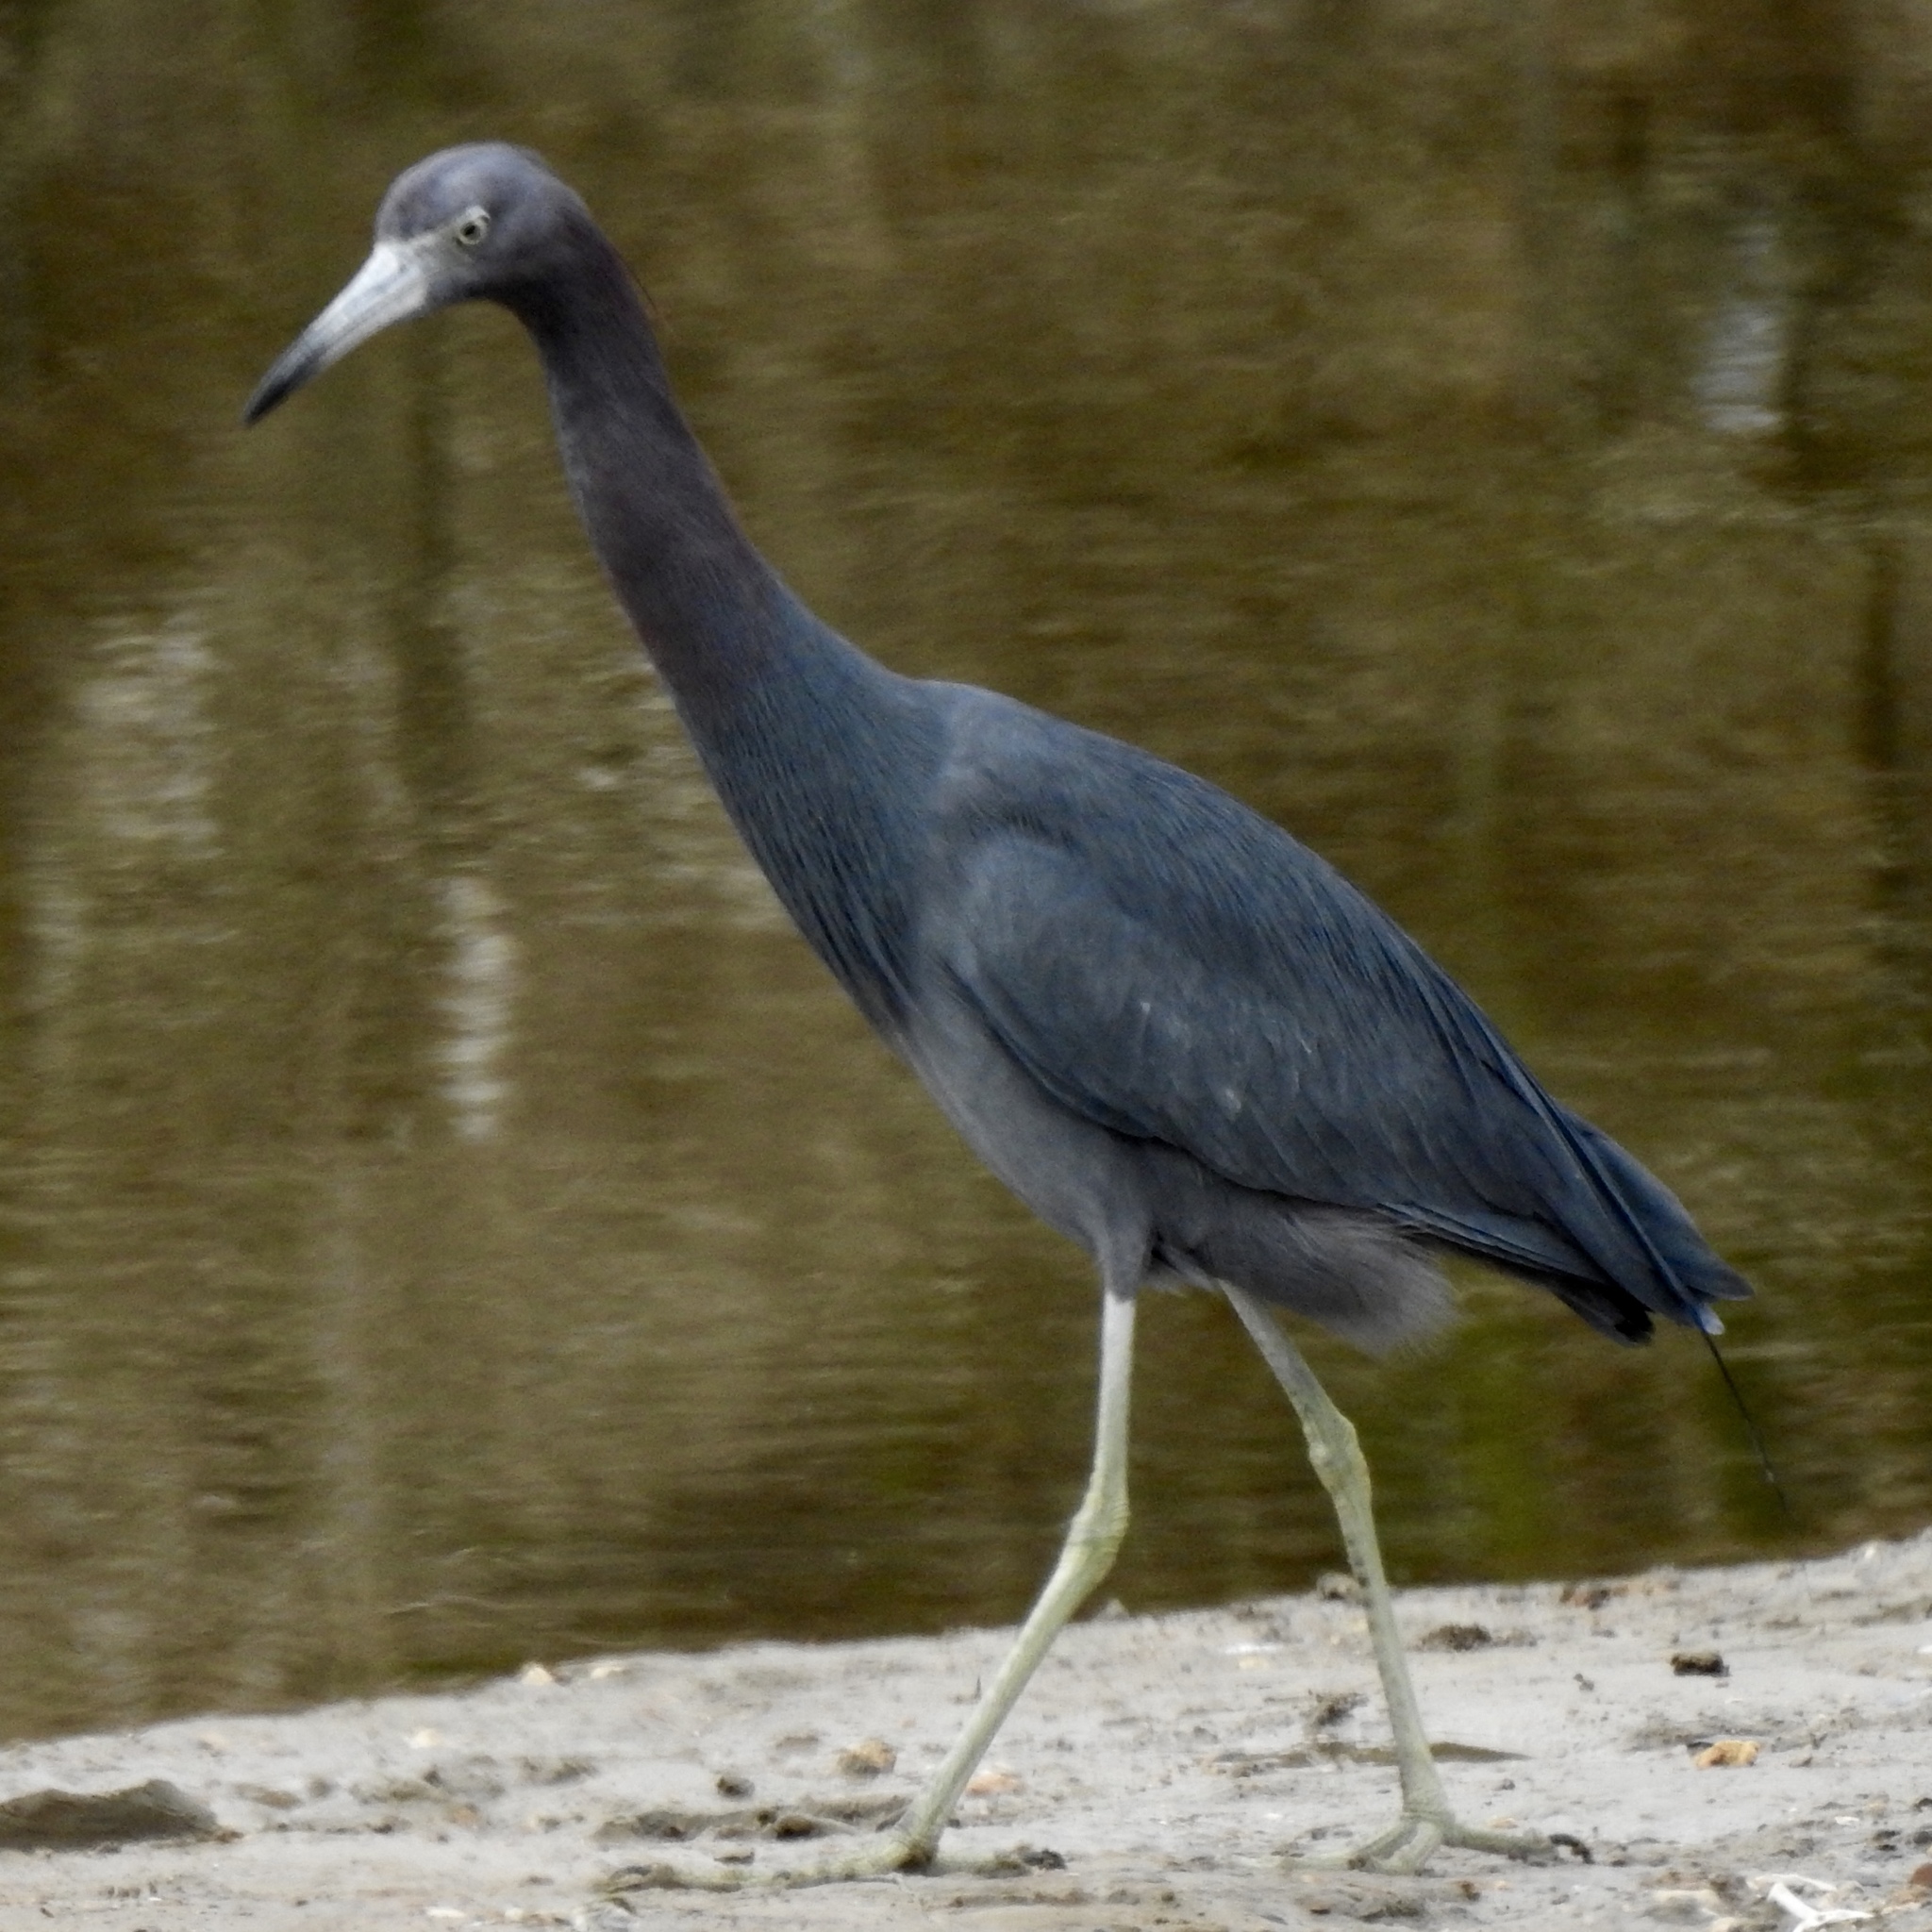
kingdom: Animalia
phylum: Chordata
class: Aves
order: Pelecaniformes
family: Ardeidae
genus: Egretta
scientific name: Egretta caerulea
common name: Little blue heron
